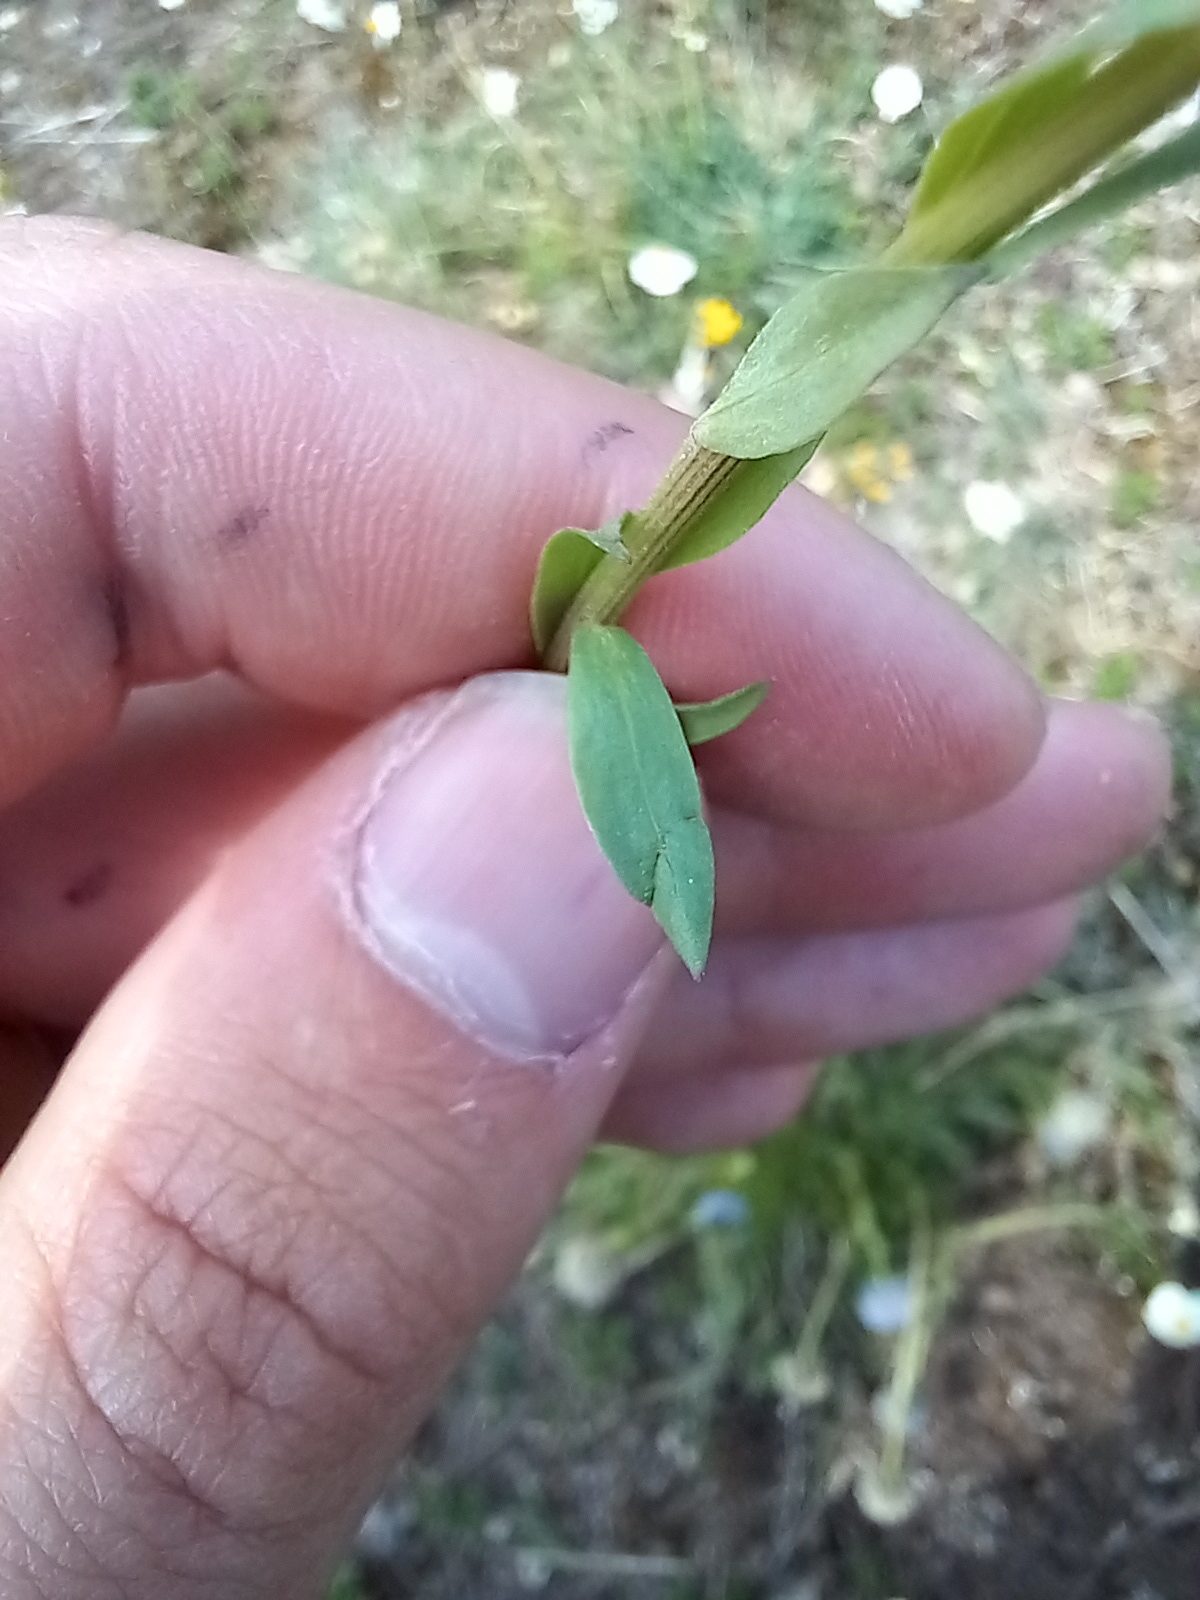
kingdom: Plantae
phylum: Tracheophyta
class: Magnoliopsida
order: Lamiales
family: Plantaginaceae
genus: Globularia
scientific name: Globularia bisnagarica
